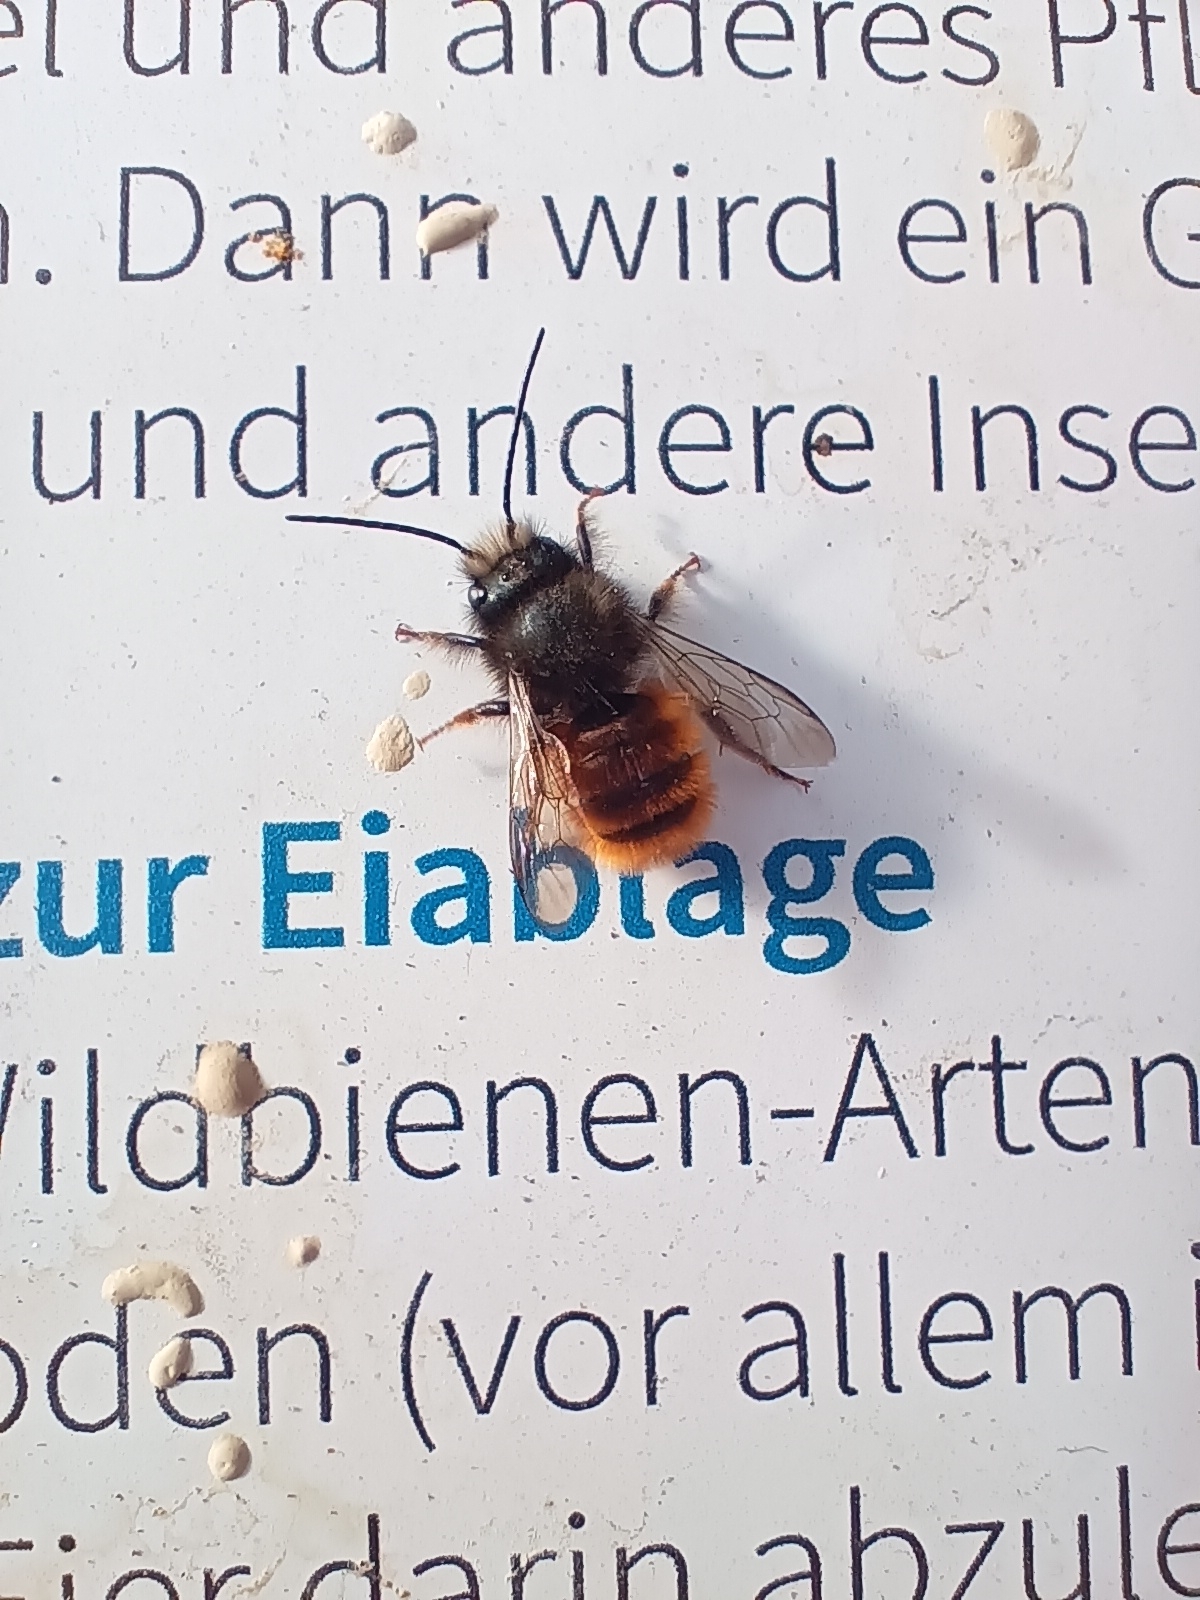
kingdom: Animalia
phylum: Arthropoda
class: Insecta
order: Hymenoptera
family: Megachilidae
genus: Osmia
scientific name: Osmia cornuta
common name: Mason bee
